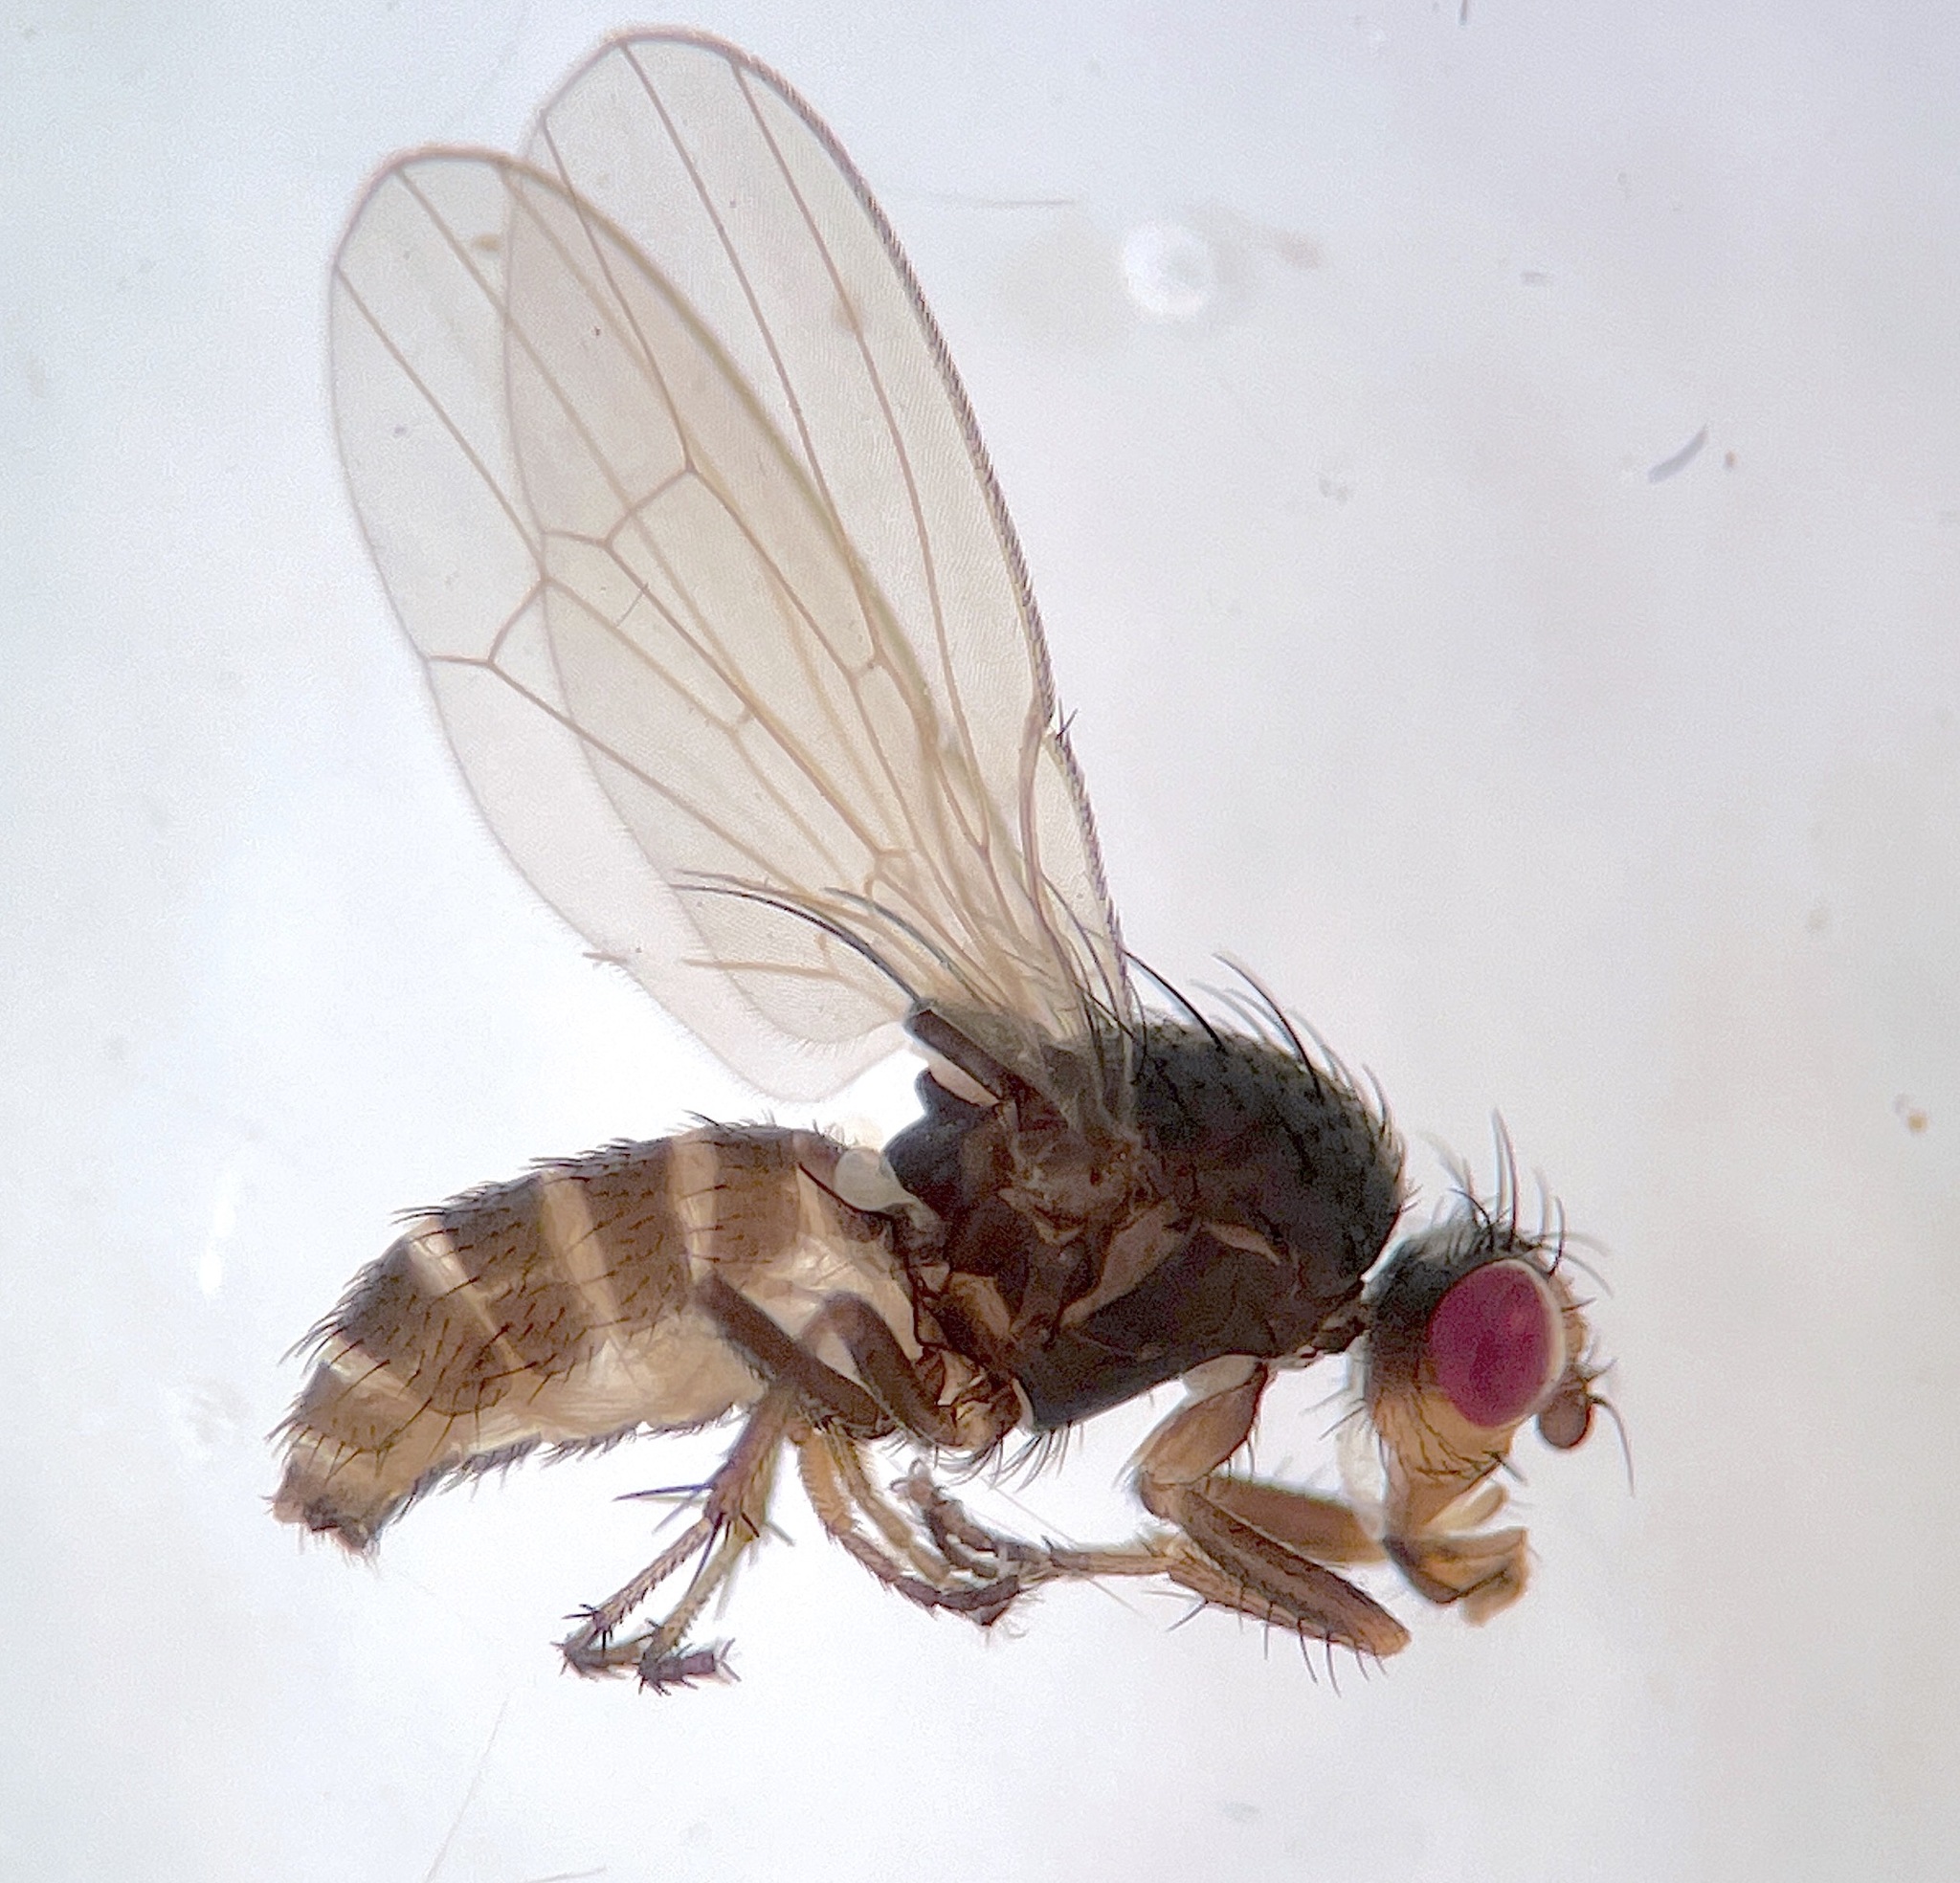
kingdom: Animalia
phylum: Arthropoda
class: Insecta
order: Diptera
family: Heleomyzidae
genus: Prosopantrum
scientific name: Prosopantrum flavifrons
